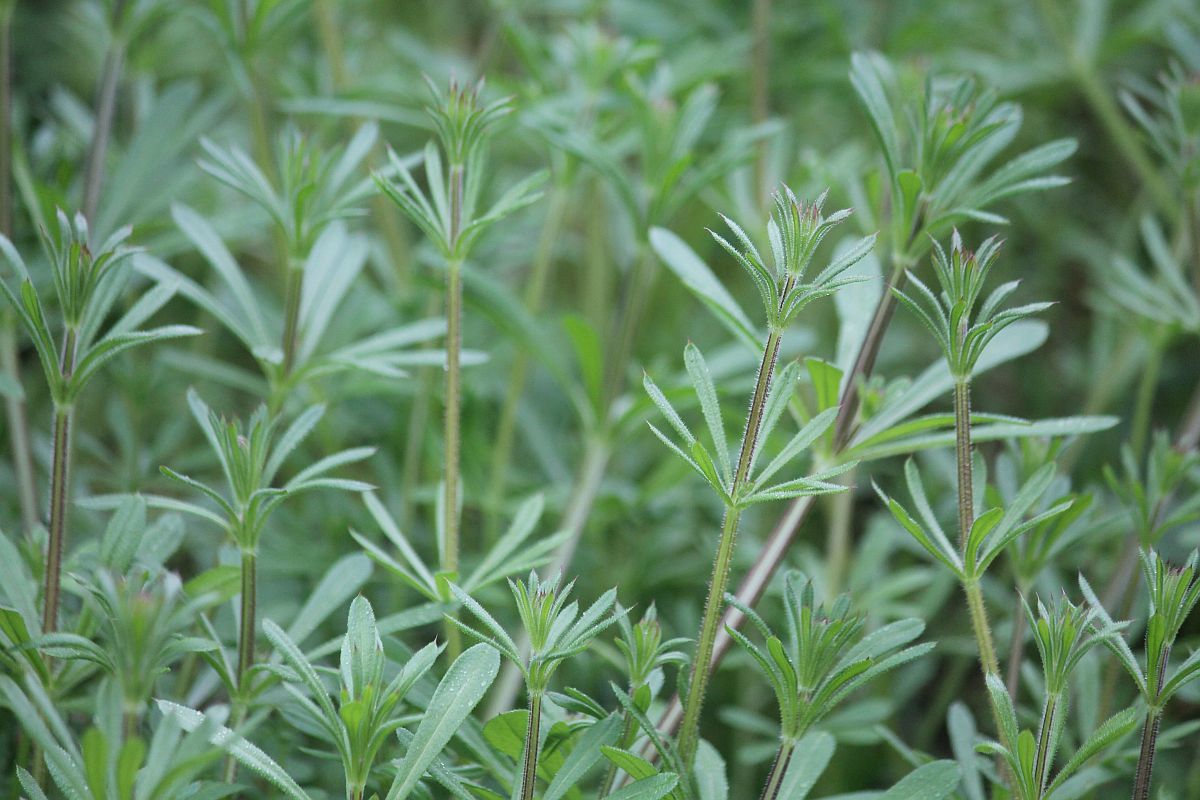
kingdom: Plantae
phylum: Tracheophyta
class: Magnoliopsida
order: Gentianales
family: Rubiaceae
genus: Galium
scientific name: Galium aparine
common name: Cleavers
